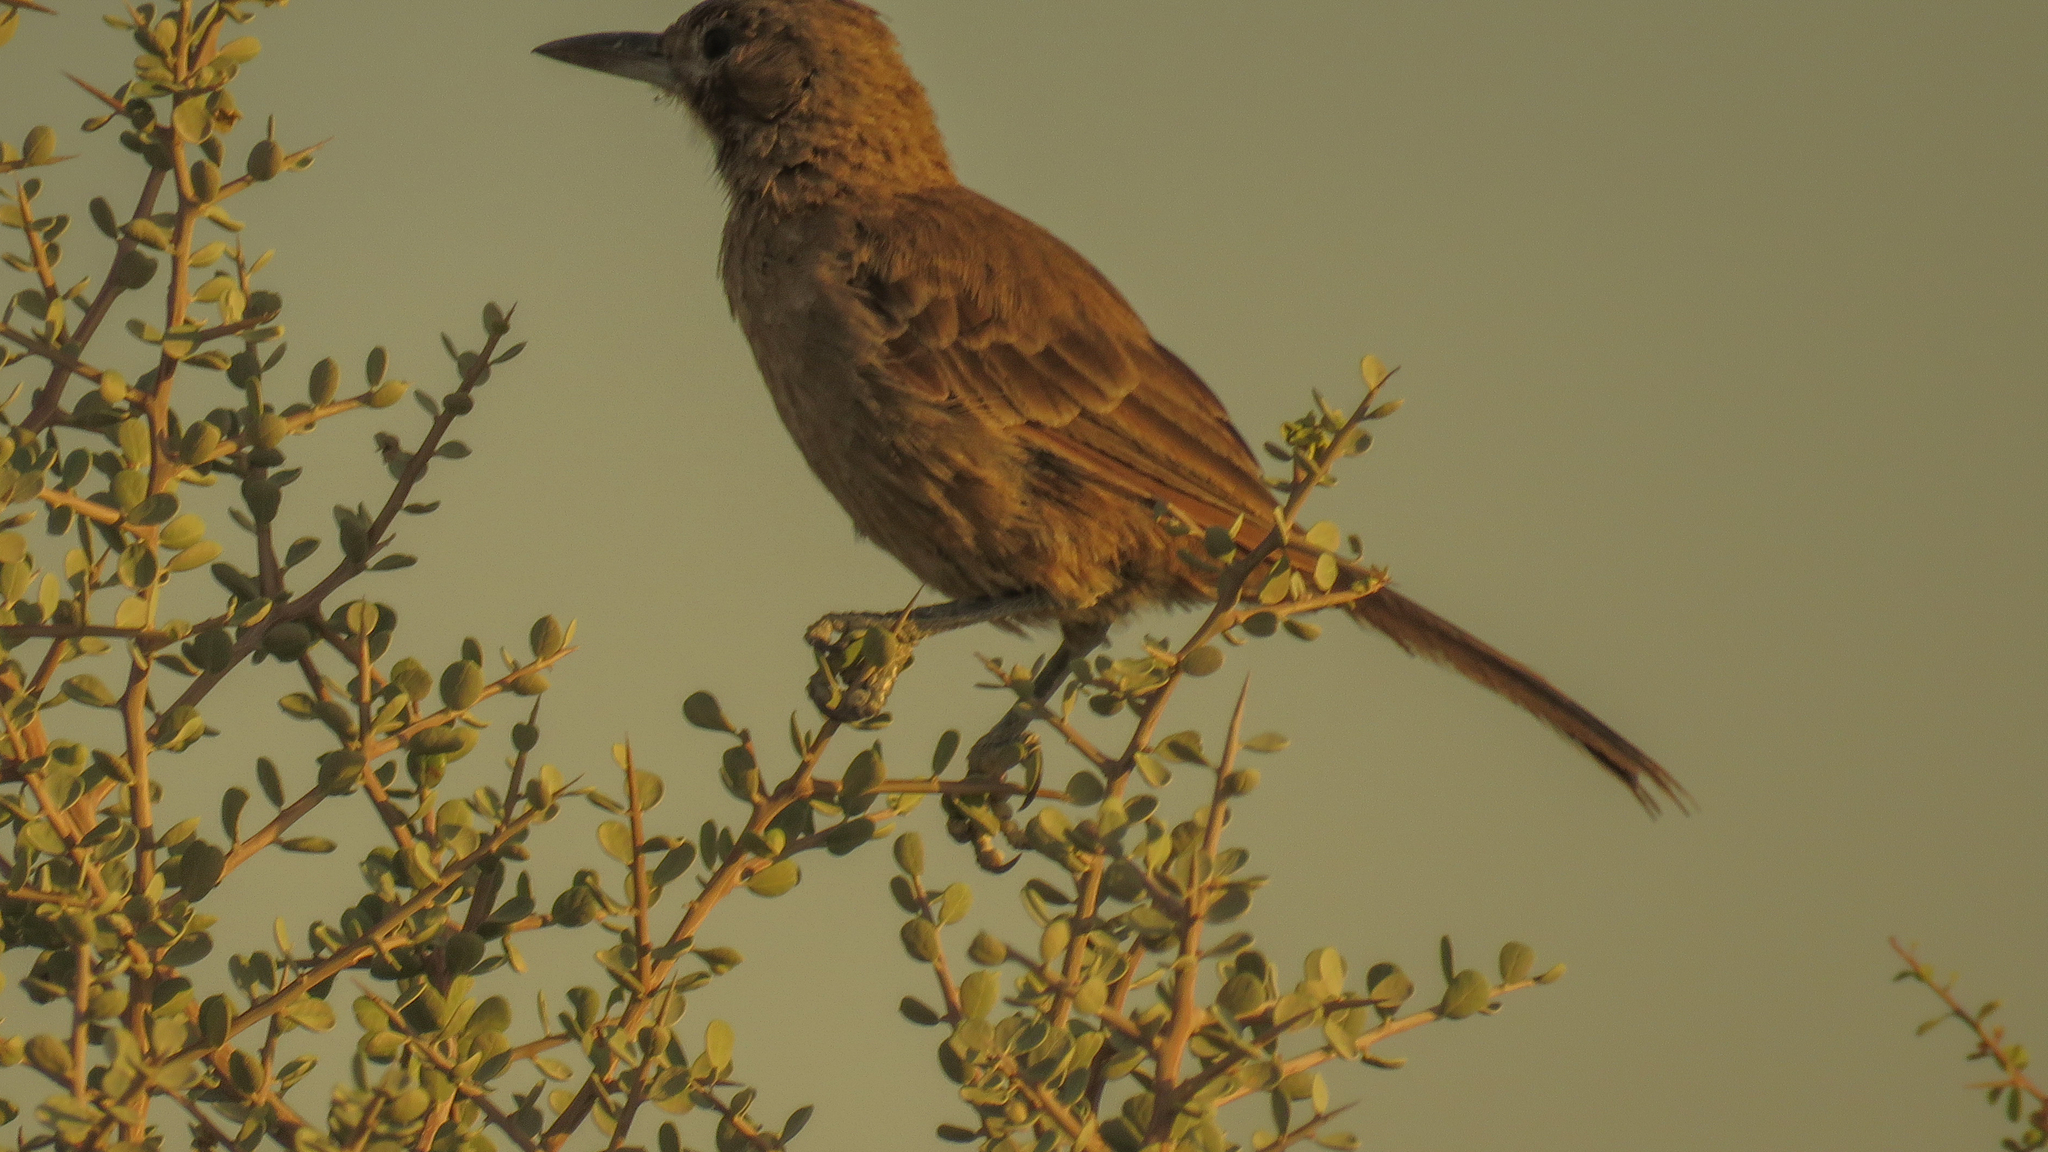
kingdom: Animalia
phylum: Chordata
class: Aves
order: Passeriformes
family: Furnariidae
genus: Pseudoseisura
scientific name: Pseudoseisura gutturalis
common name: White-throated cacholote
